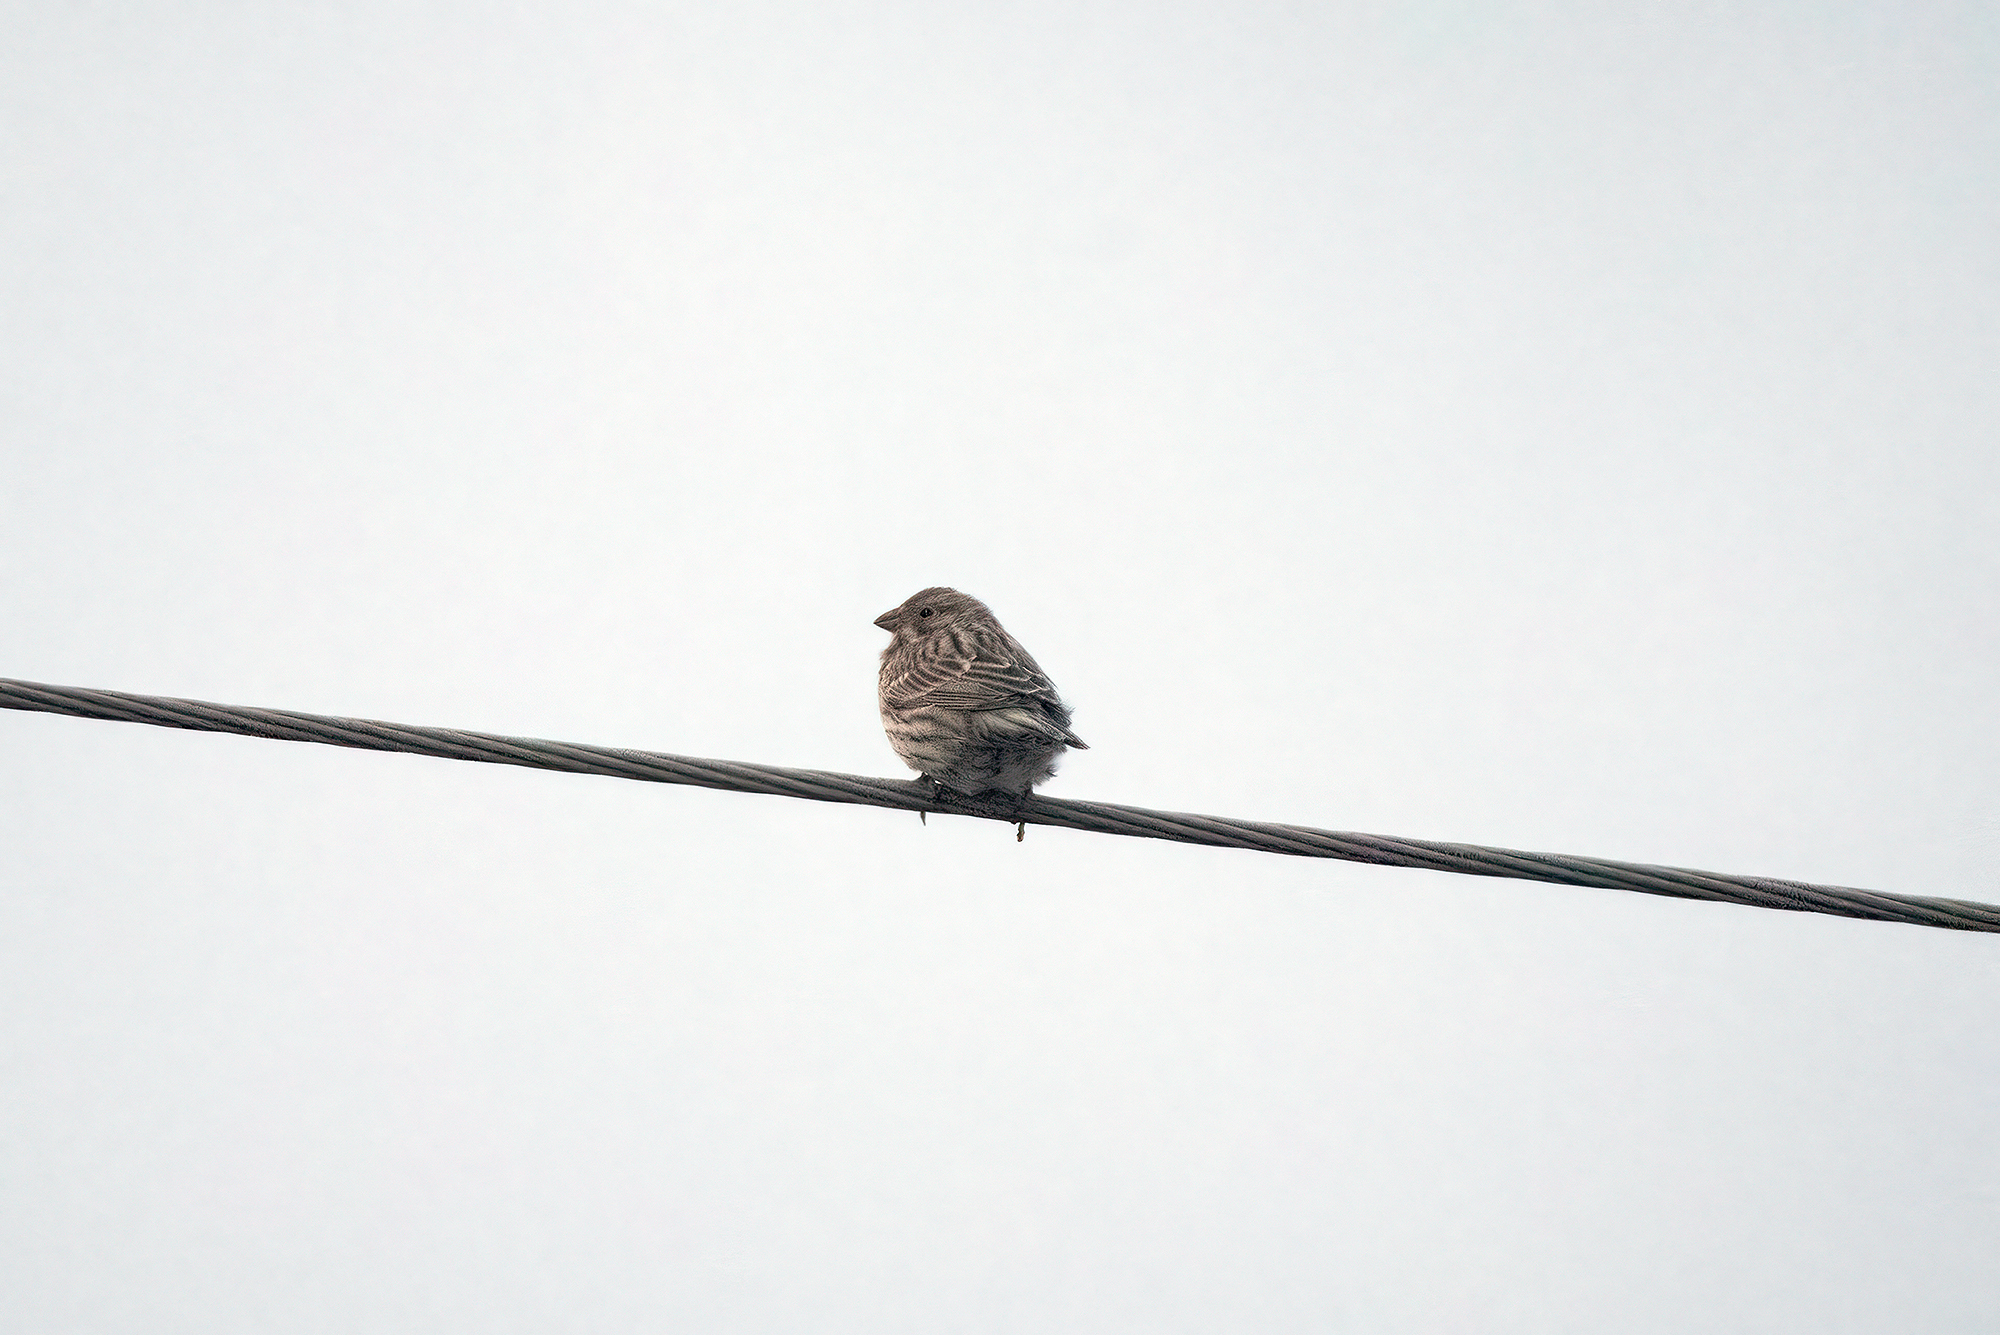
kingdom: Animalia
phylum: Chordata
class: Aves
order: Passeriformes
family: Emberizidae
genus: Emberiza
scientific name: Emberiza calandra
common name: Corn bunting
